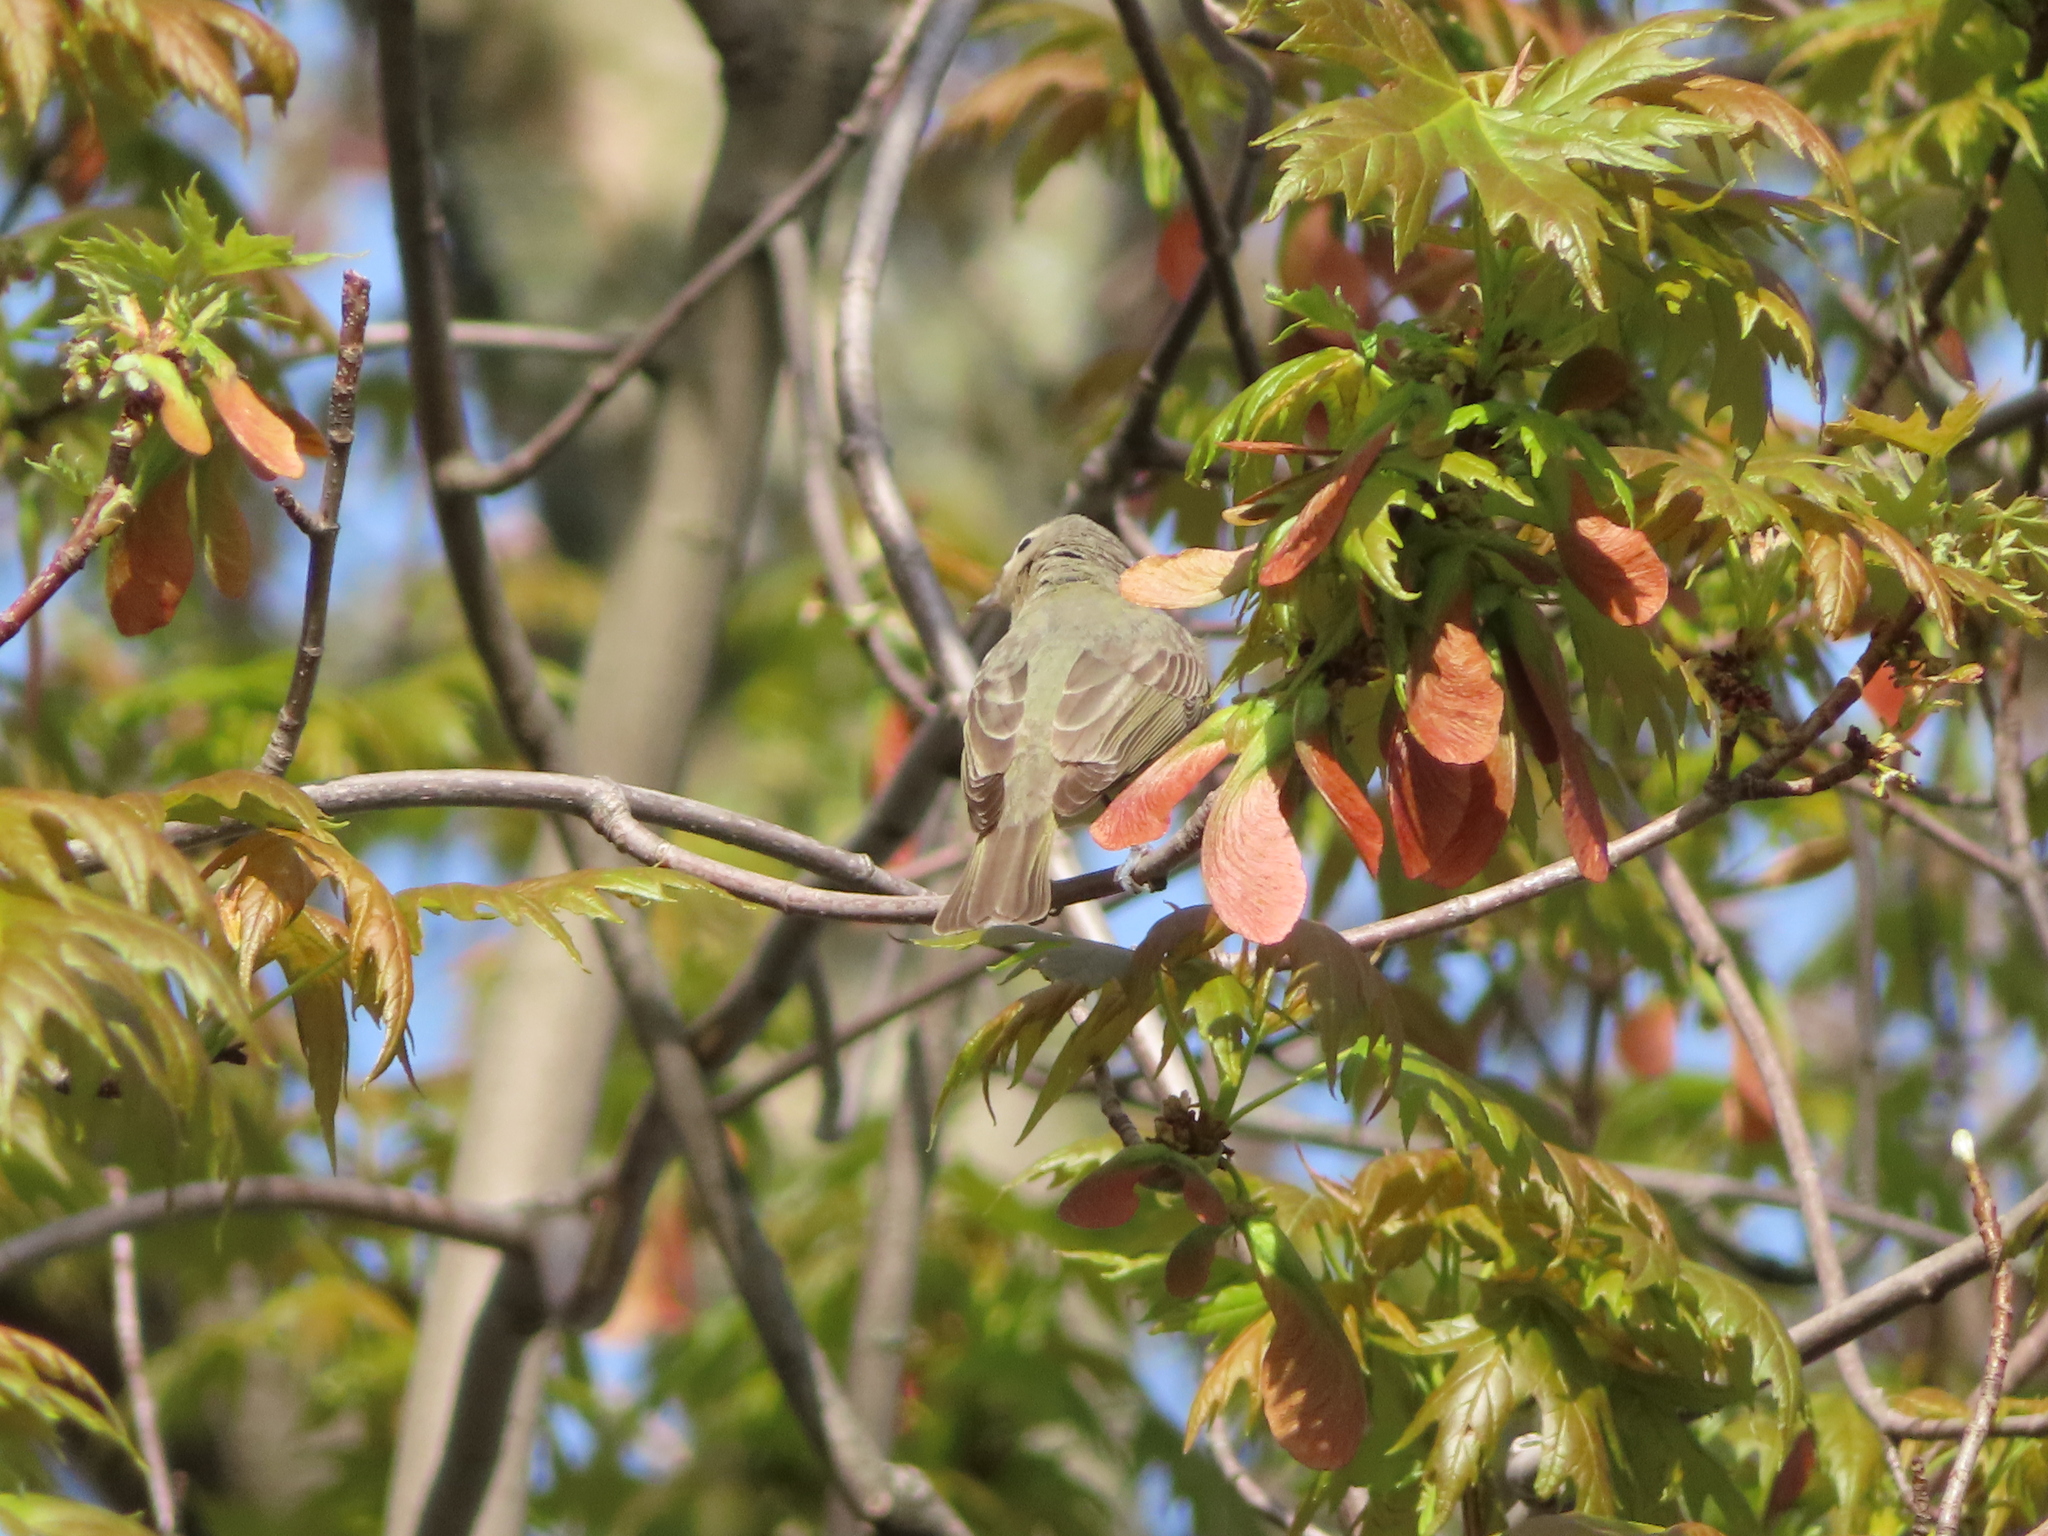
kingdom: Animalia
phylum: Chordata
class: Aves
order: Passeriformes
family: Vireonidae
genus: Vireo
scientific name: Vireo gilvus
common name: Warbling vireo
